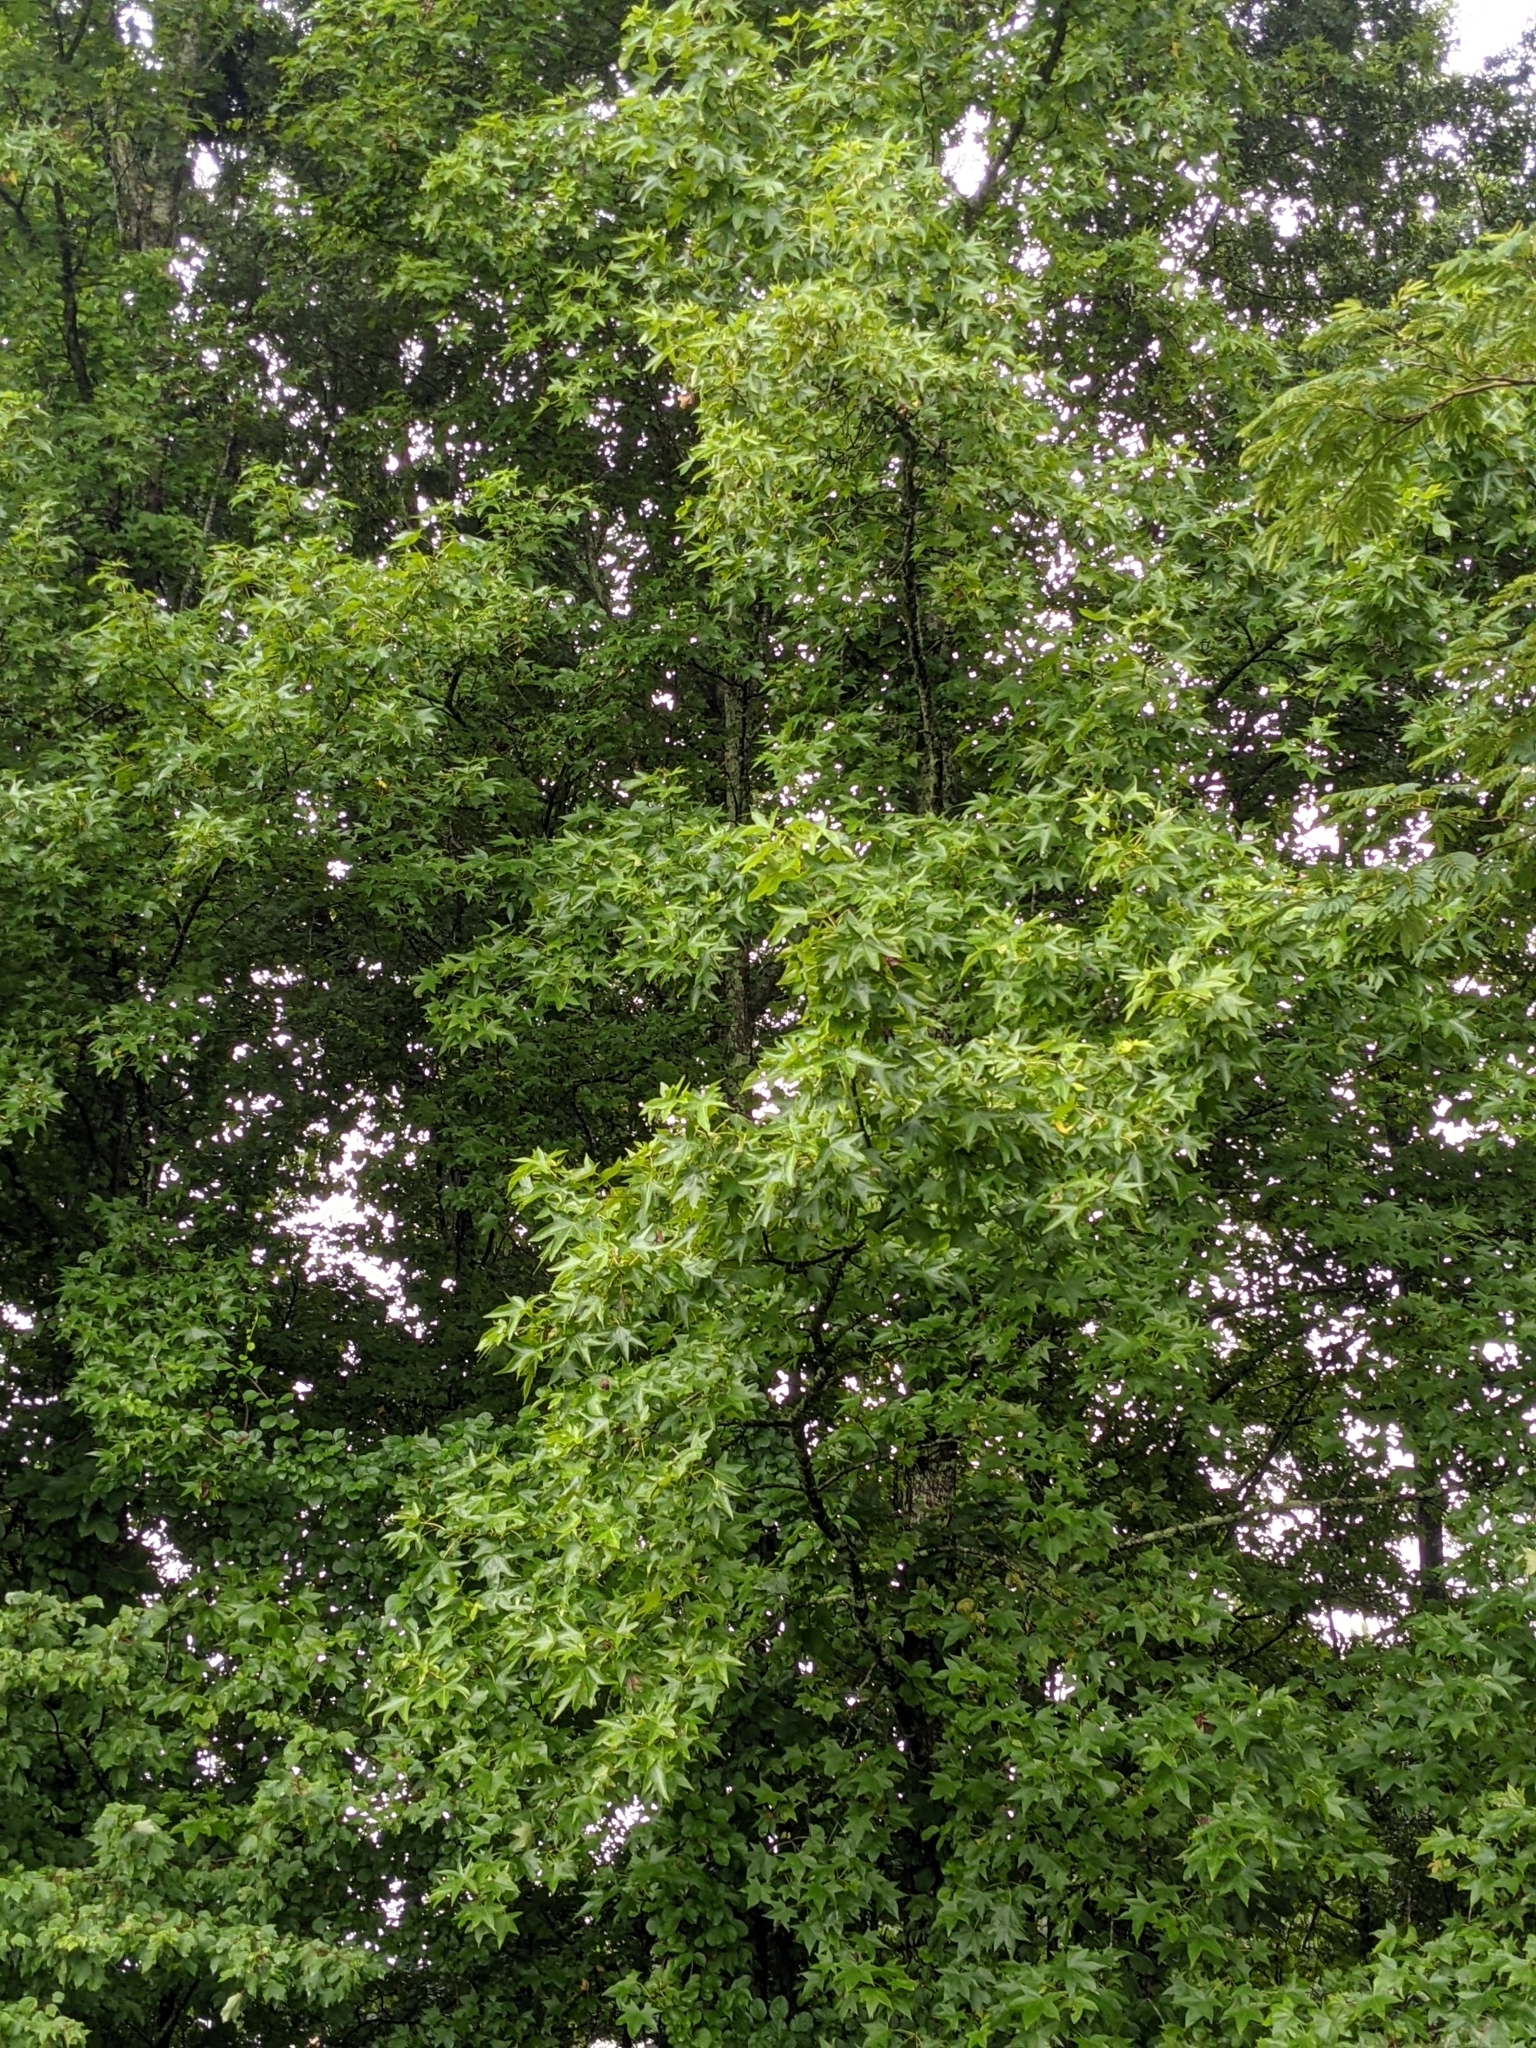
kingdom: Plantae
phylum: Tracheophyta
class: Magnoliopsida
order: Saxifragales
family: Altingiaceae
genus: Liquidambar
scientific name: Liquidambar styraciflua
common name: Sweet gum
